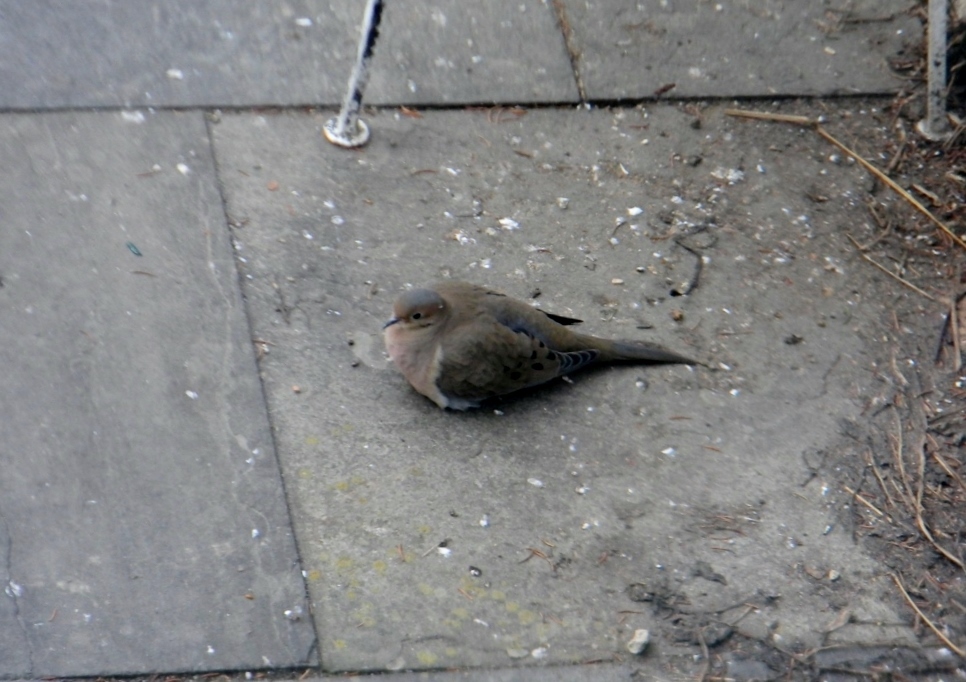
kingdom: Animalia
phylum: Chordata
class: Aves
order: Columbiformes
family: Columbidae
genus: Zenaida
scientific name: Zenaida macroura
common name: Mourning dove
